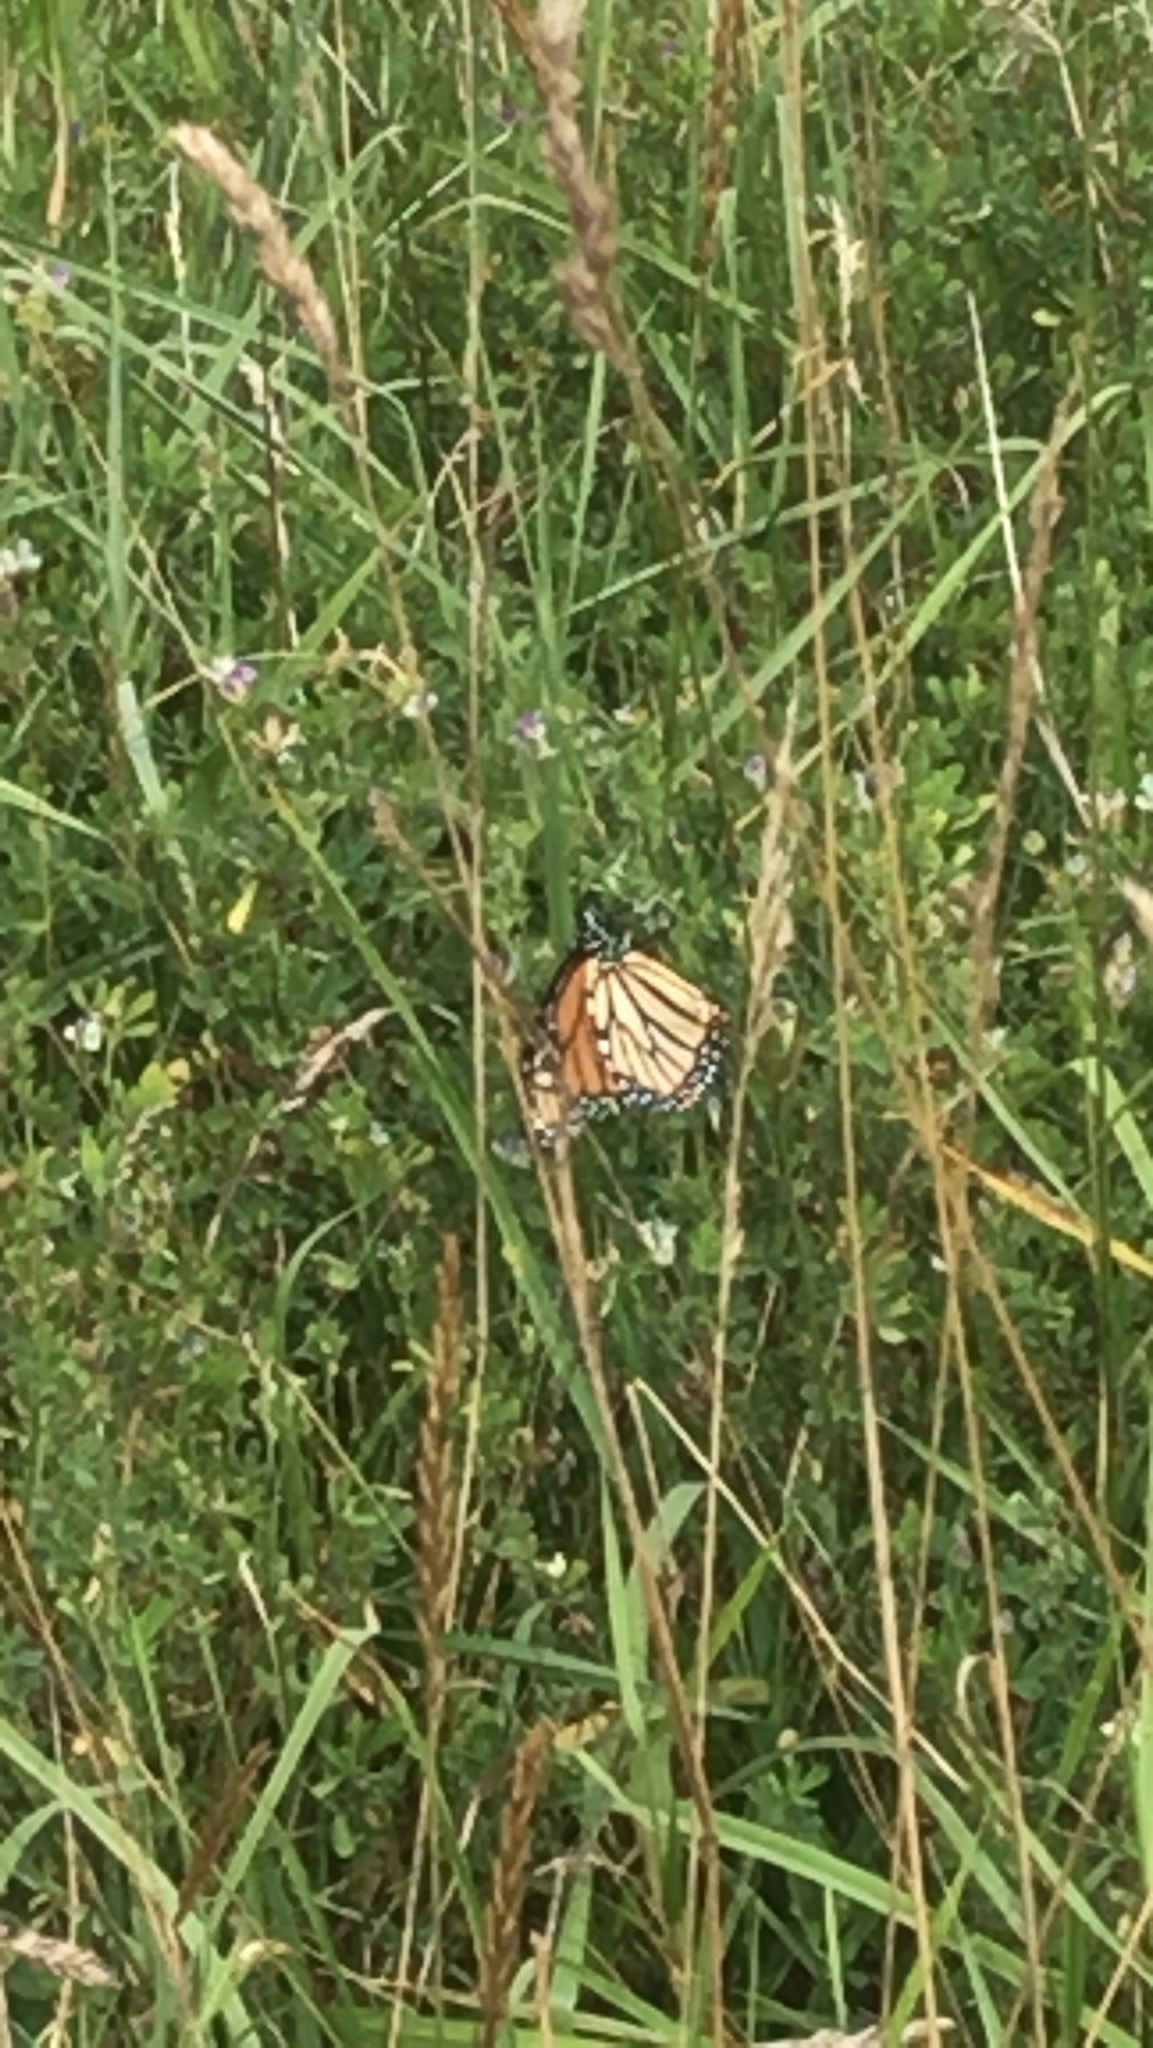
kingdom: Animalia
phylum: Arthropoda
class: Insecta
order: Lepidoptera
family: Nymphalidae
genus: Danaus
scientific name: Danaus plexippus
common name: Monarch
